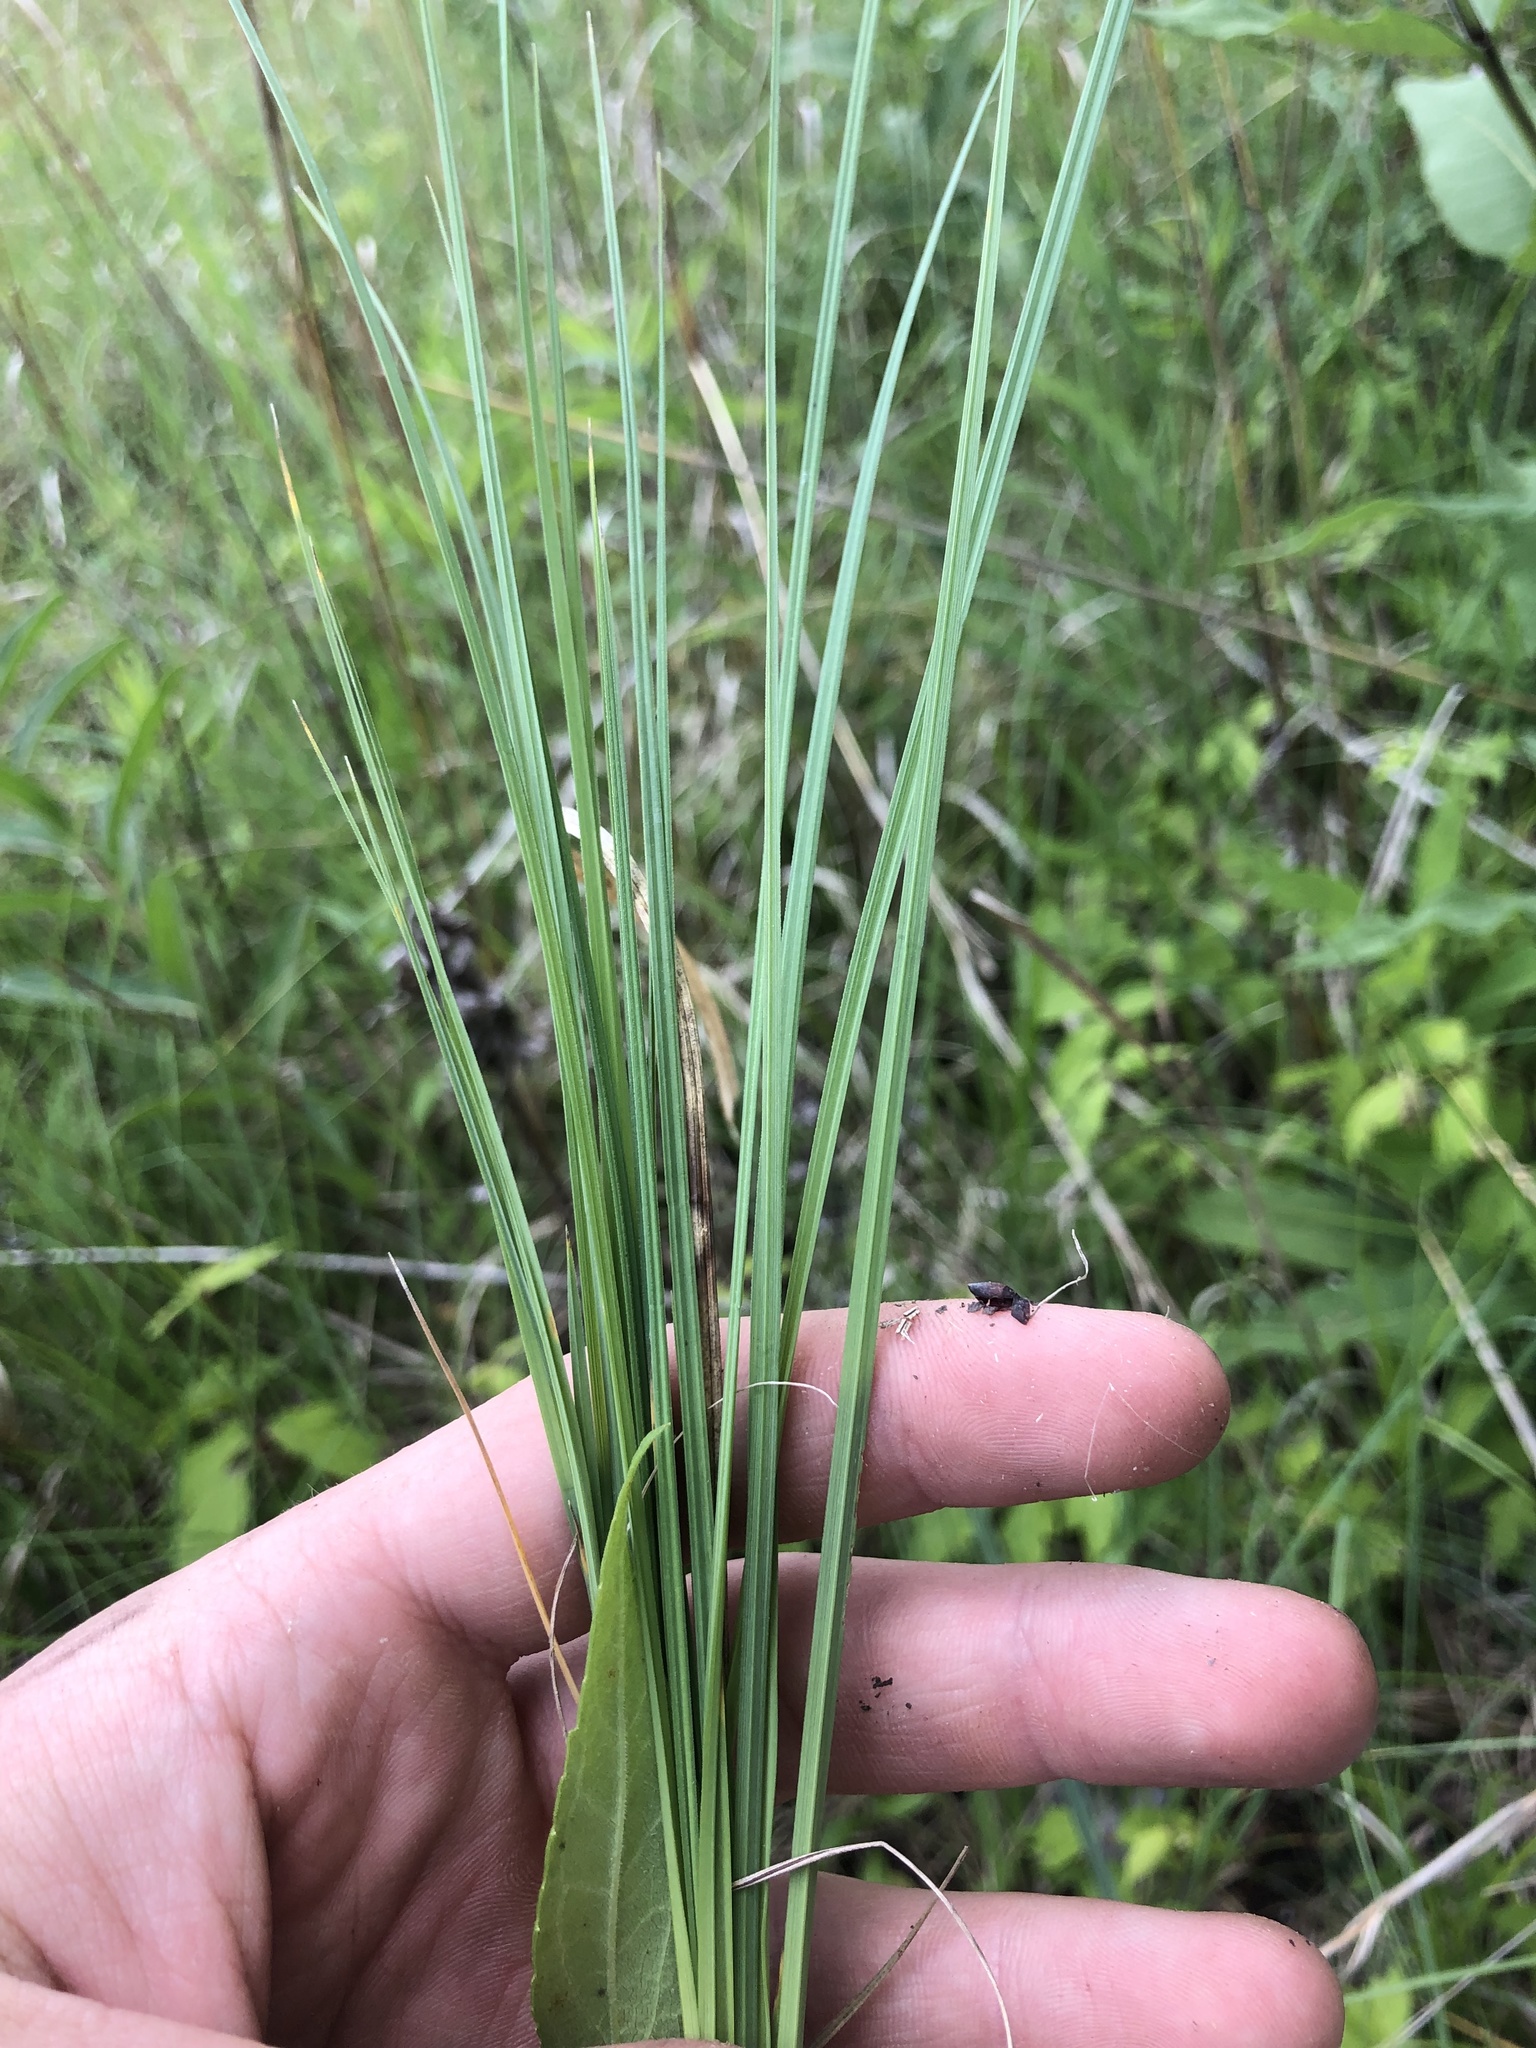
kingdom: Plantae
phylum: Tracheophyta
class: Liliopsida
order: Poales
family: Cyperaceae
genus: Carex
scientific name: Carex meadii
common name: Mead's sedge
